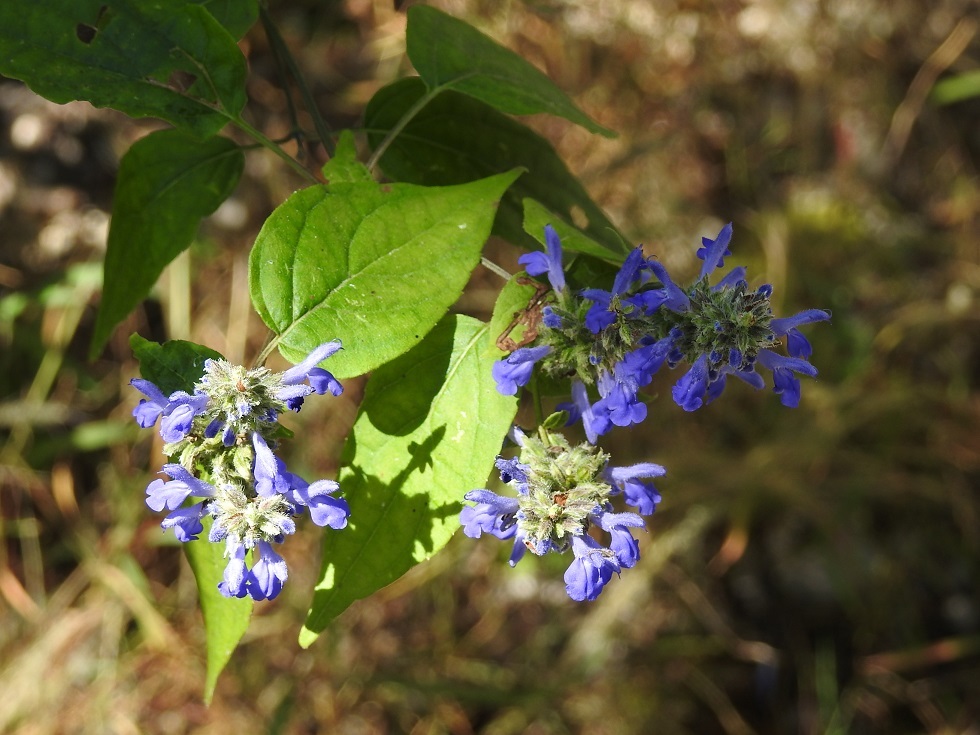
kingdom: Plantae
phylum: Tracheophyta
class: Magnoliopsida
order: Lamiales
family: Lamiaceae
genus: Salvia
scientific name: Salvia connivens
